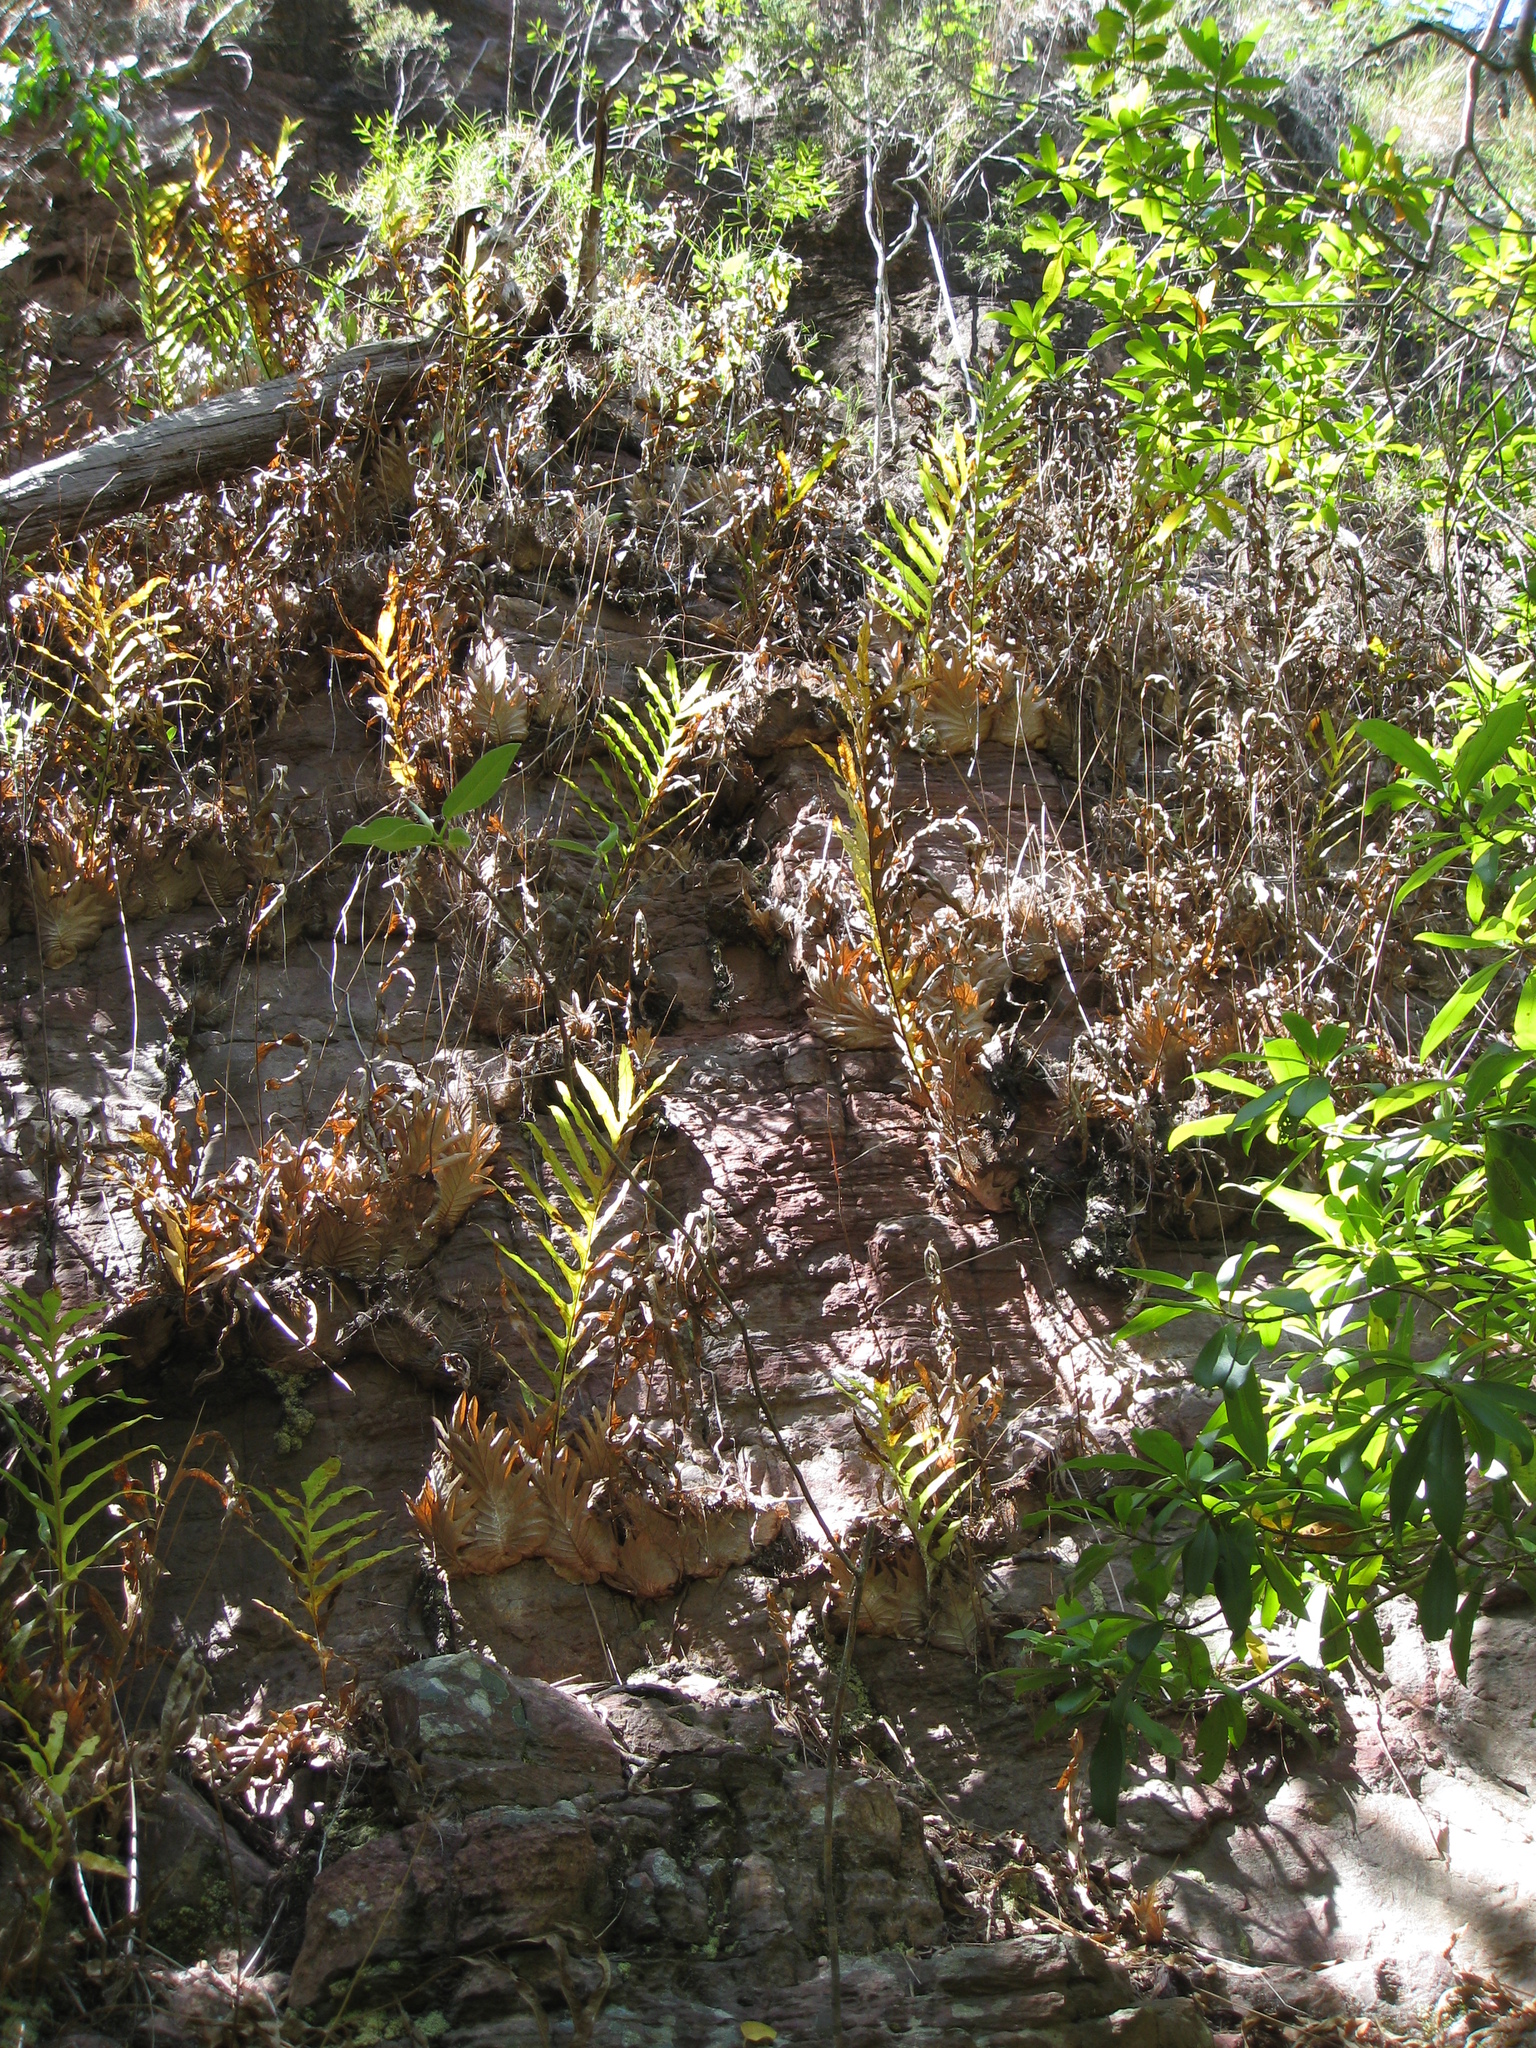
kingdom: Plantae
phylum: Tracheophyta
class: Polypodiopsida
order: Polypodiales
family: Polypodiaceae
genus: Drynaria
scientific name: Drynaria quercifolia
